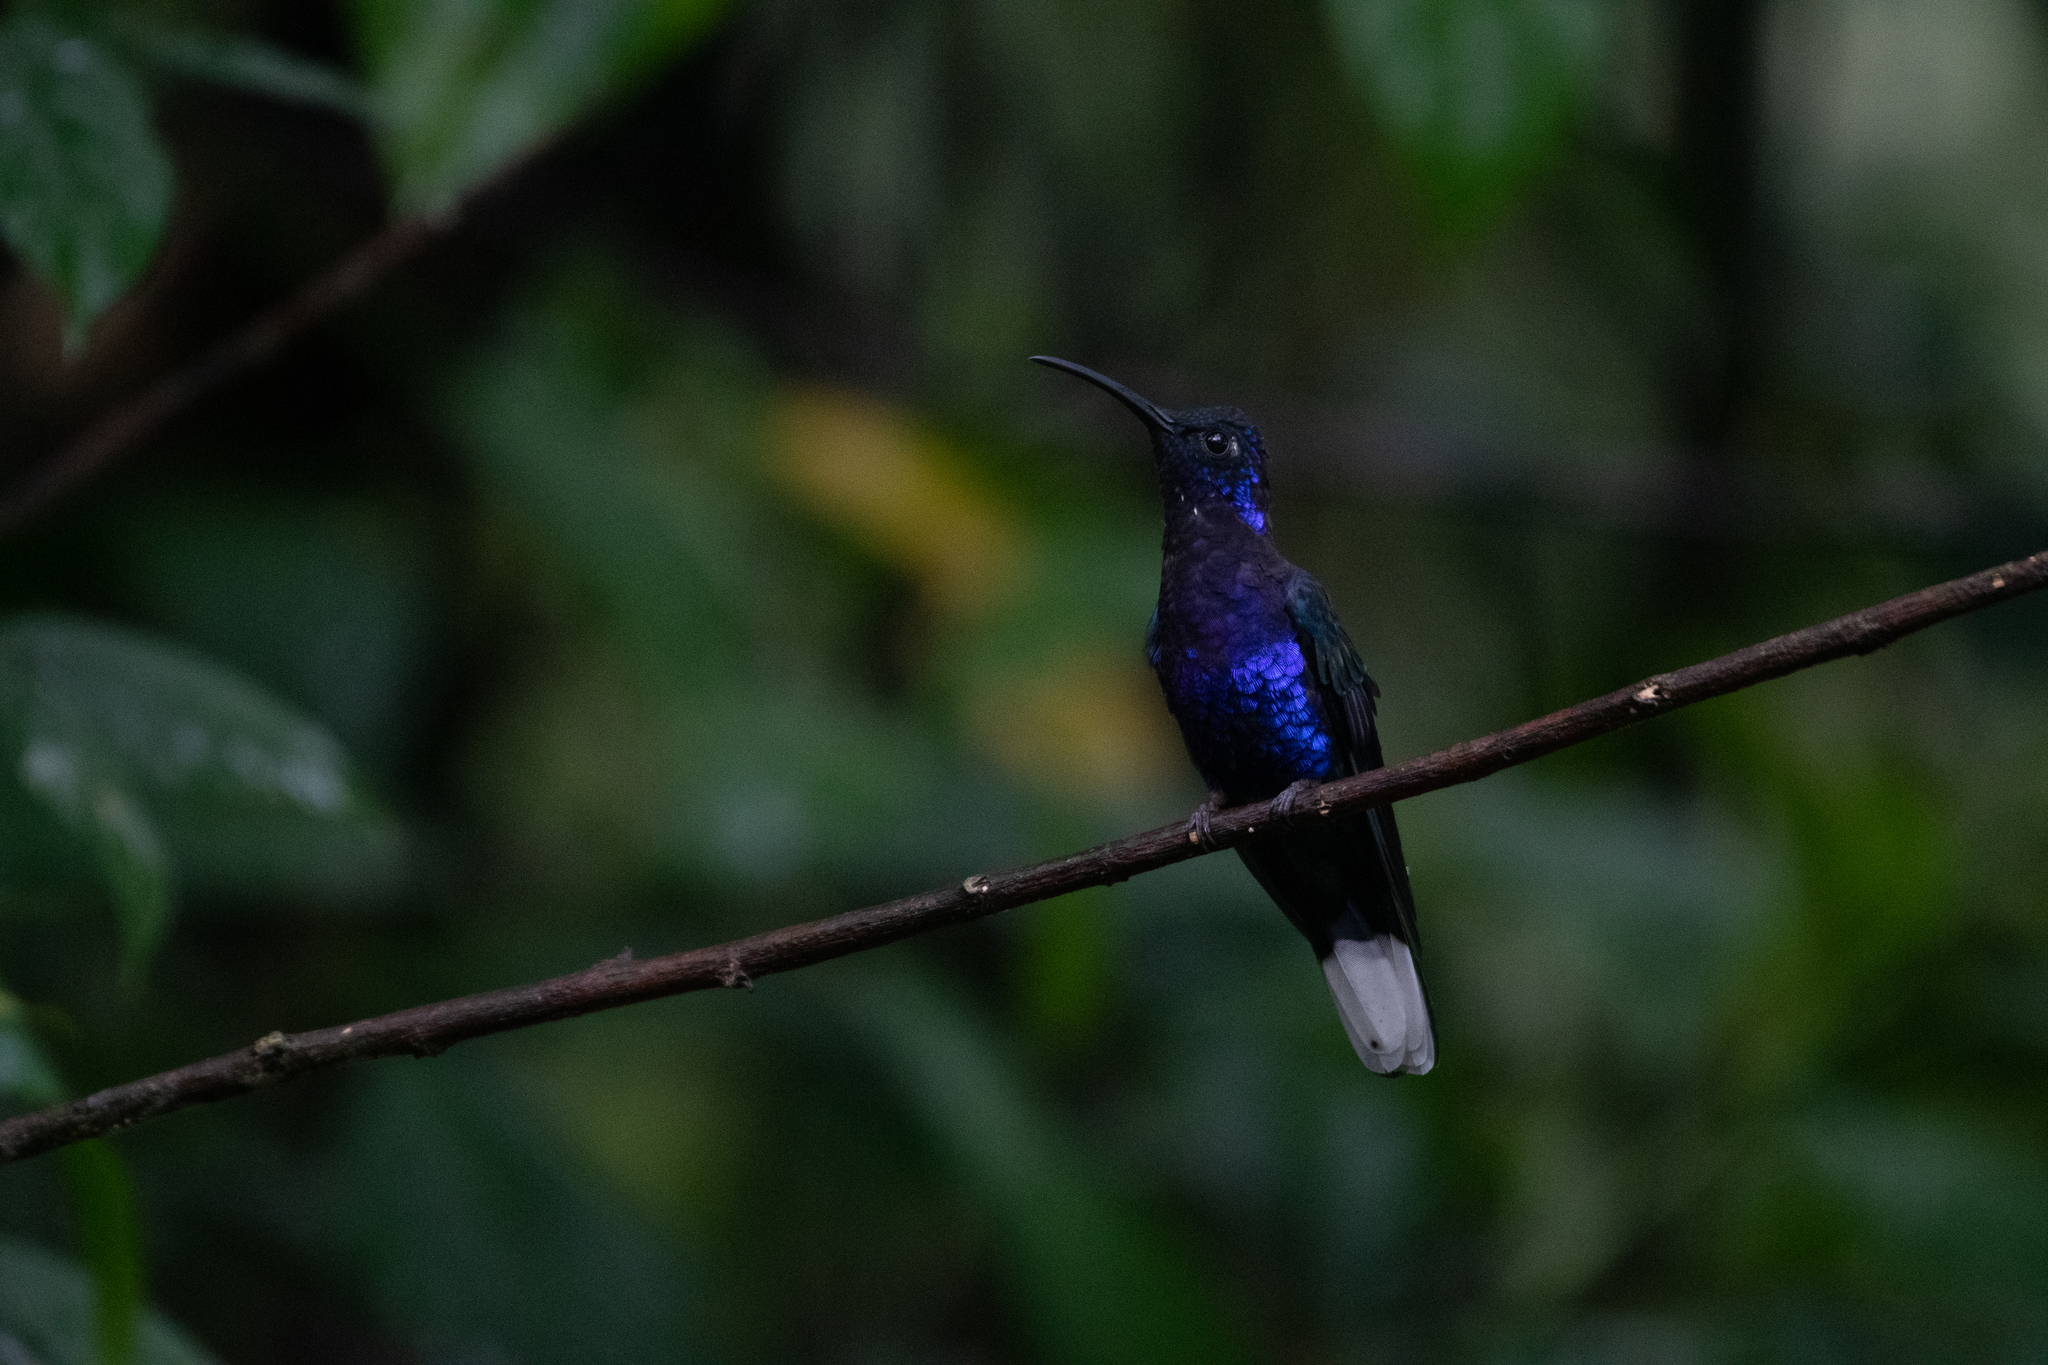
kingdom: Animalia
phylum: Chordata
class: Aves
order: Apodiformes
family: Trochilidae
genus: Campylopterus
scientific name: Campylopterus hemileucurus
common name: Violet sabrewing
